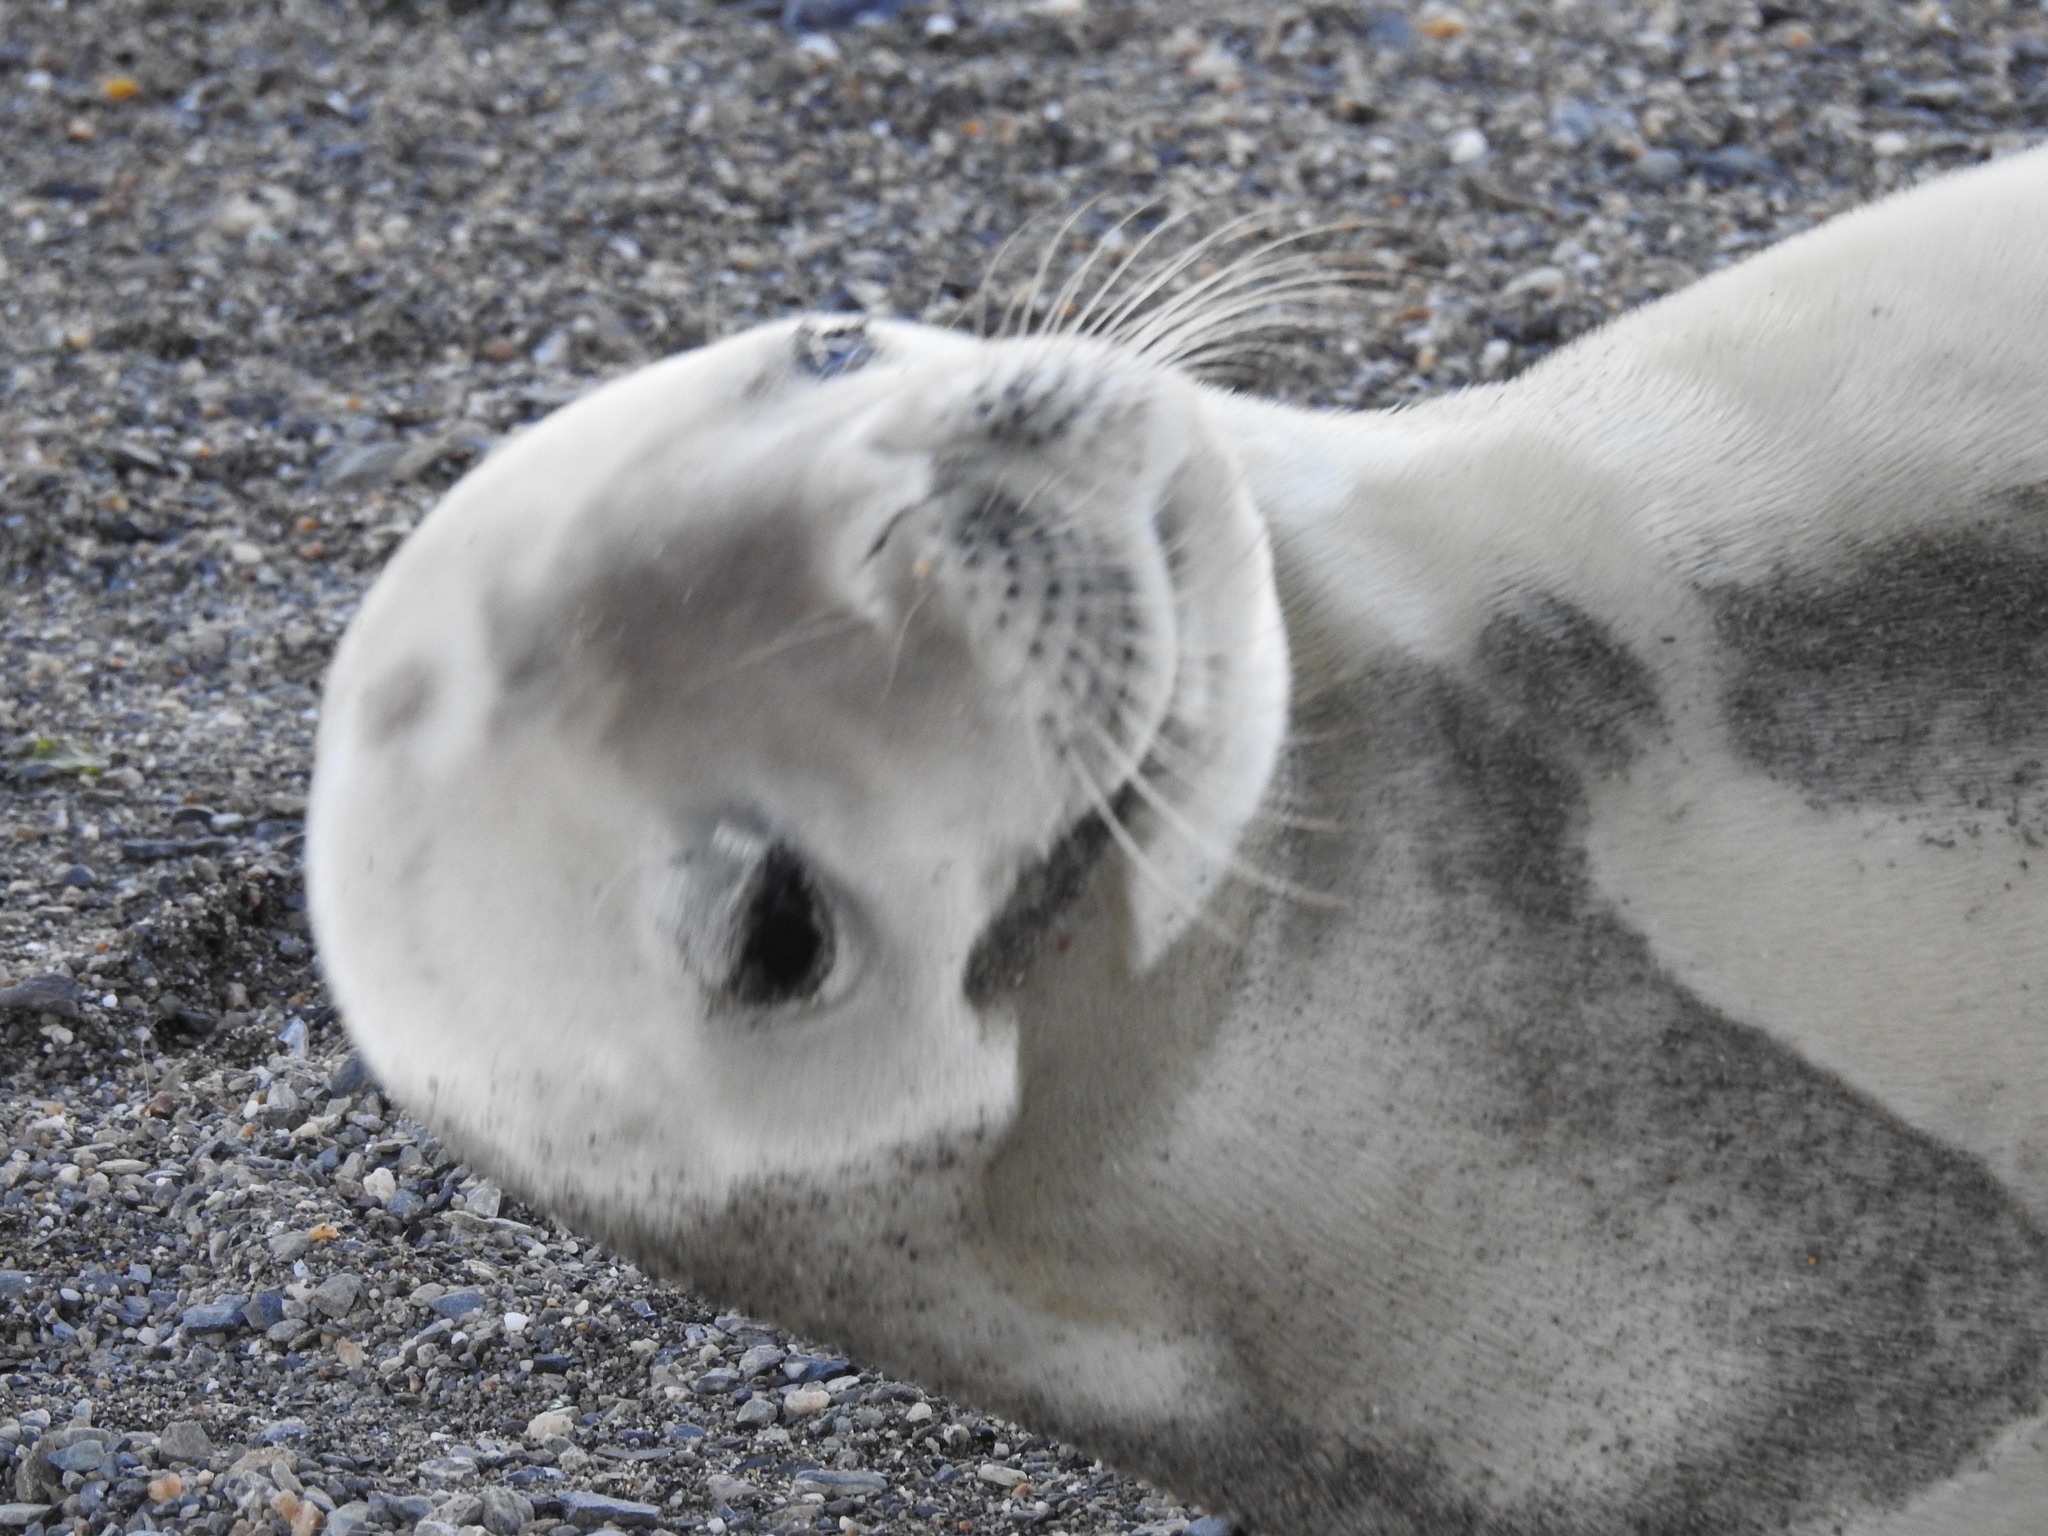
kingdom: Animalia
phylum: Chordata
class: Mammalia
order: Carnivora
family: Phocidae
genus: Lobodon
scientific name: Lobodon carcinophaga
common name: Crabeater seal
